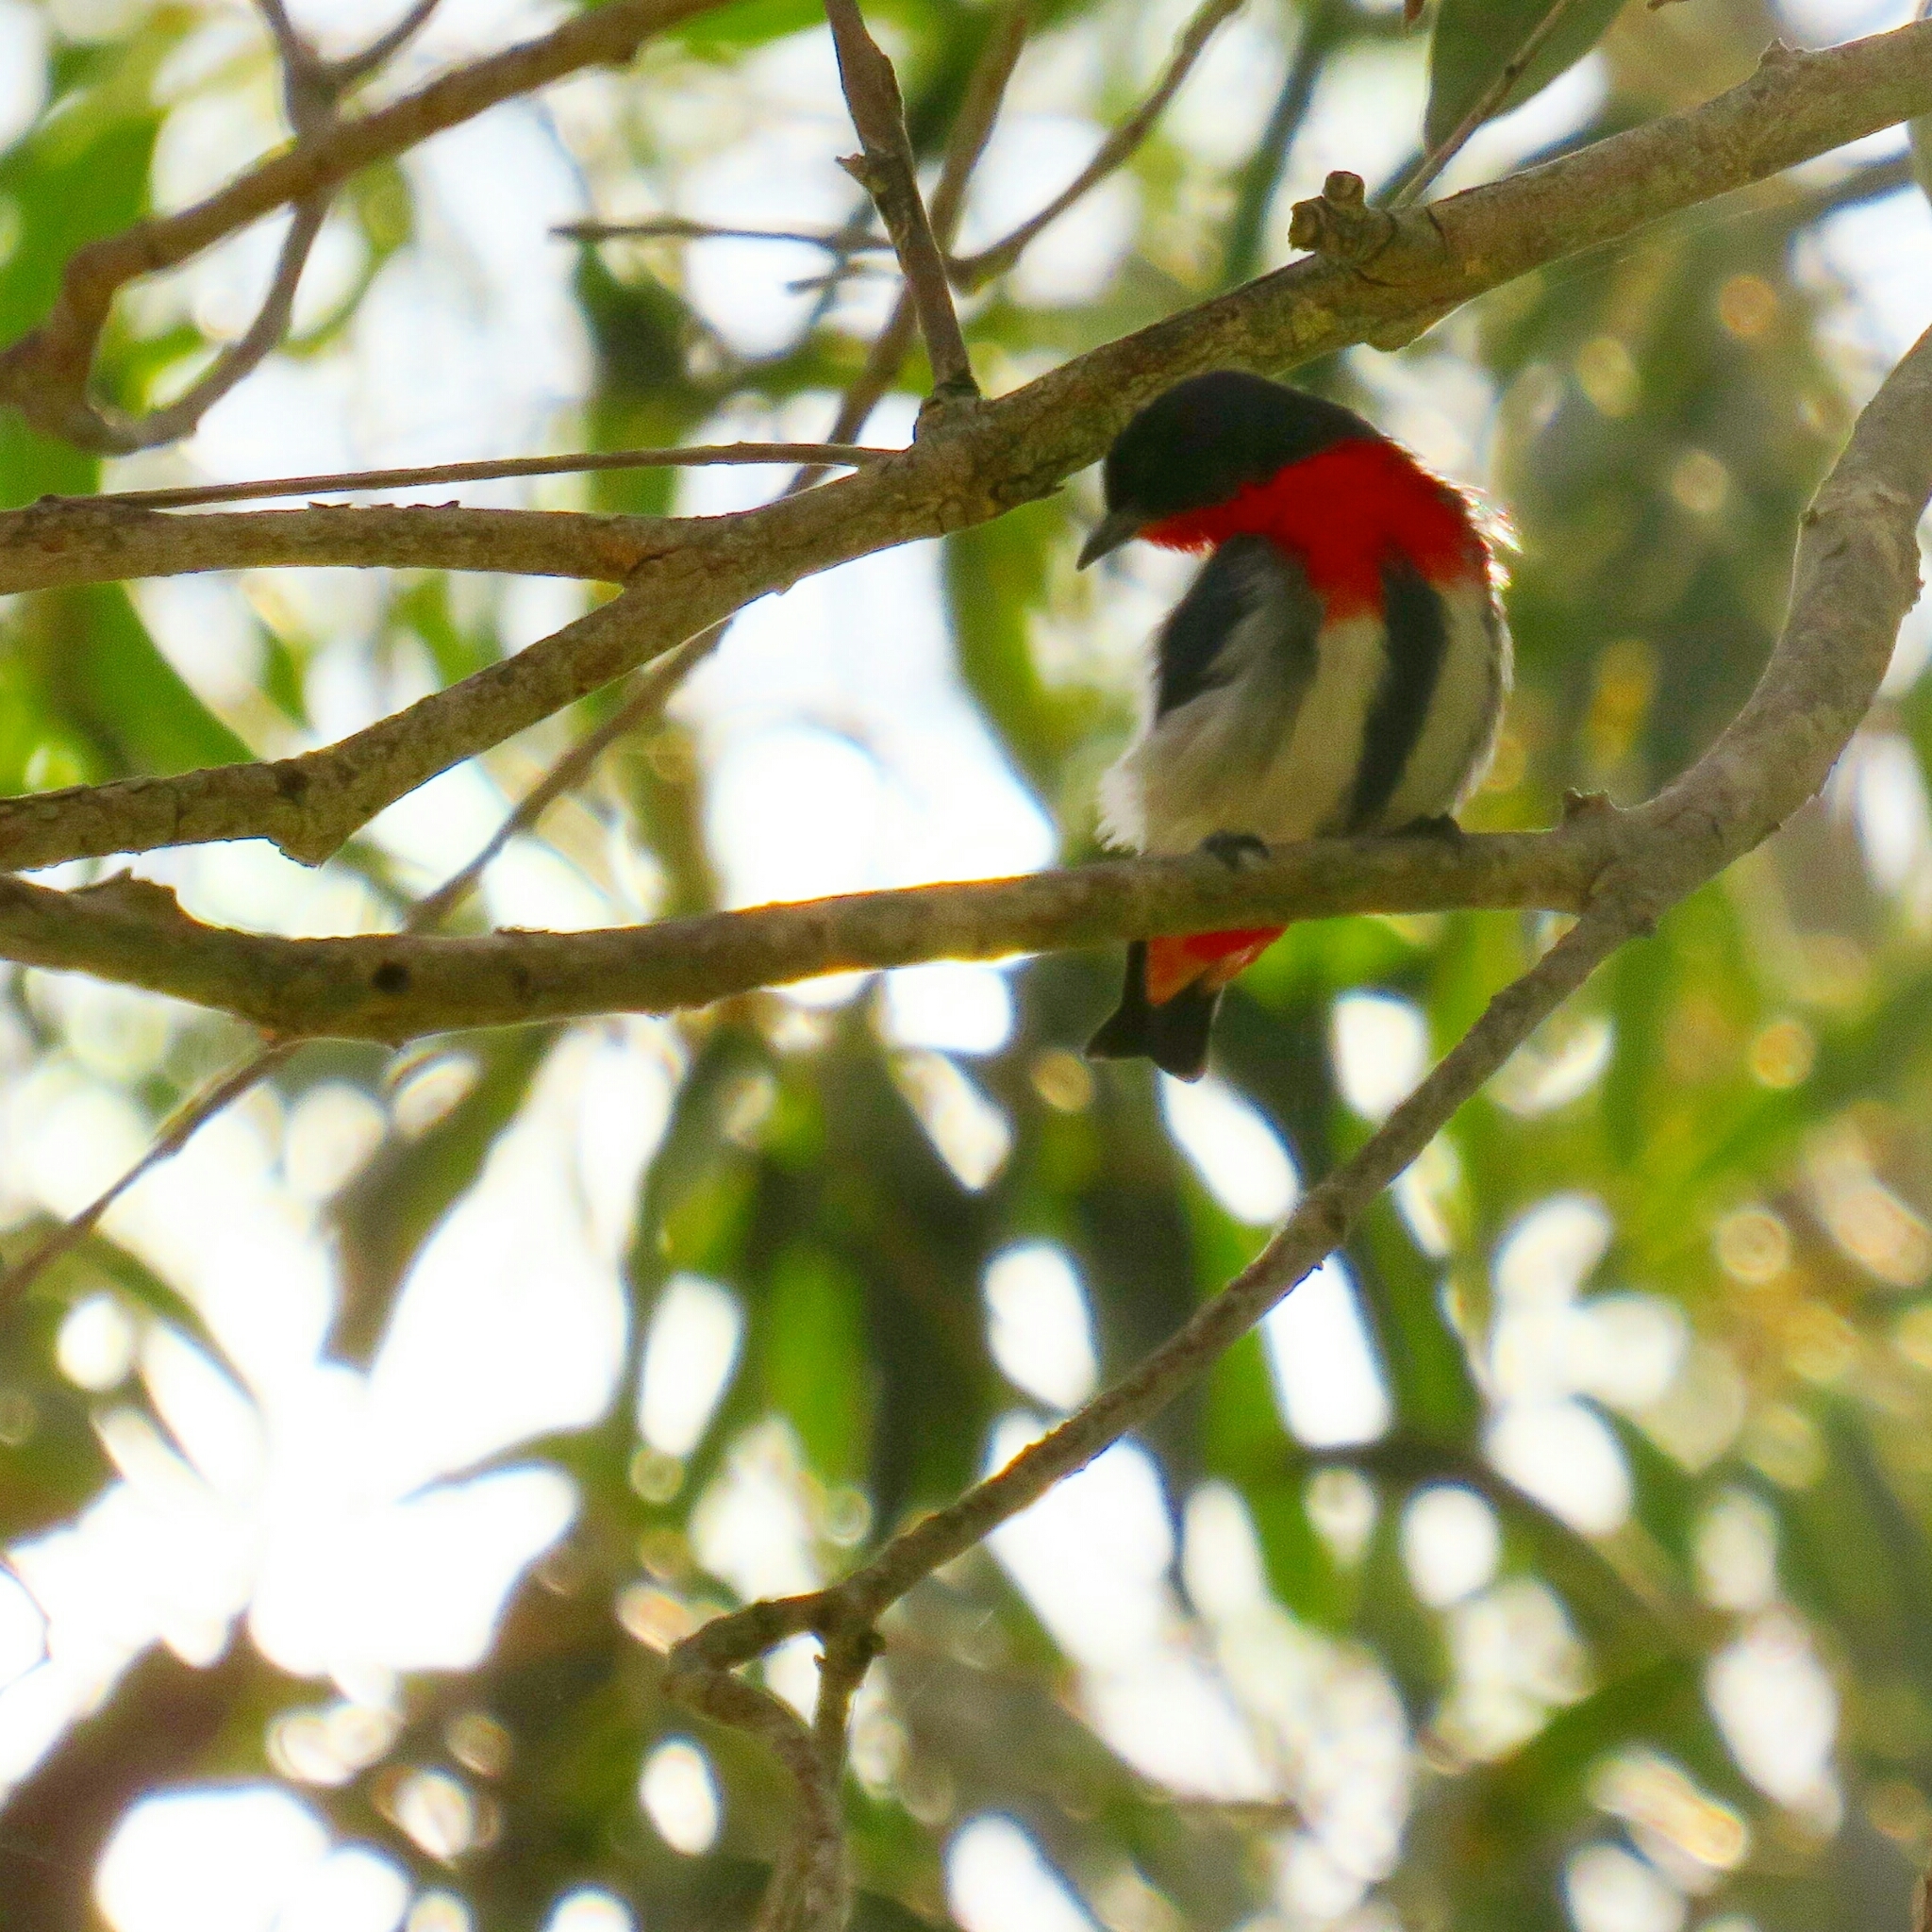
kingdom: Animalia
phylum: Chordata
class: Aves
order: Passeriformes
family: Dicaeidae
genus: Dicaeum
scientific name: Dicaeum hirundinaceum
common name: Mistletoebird
